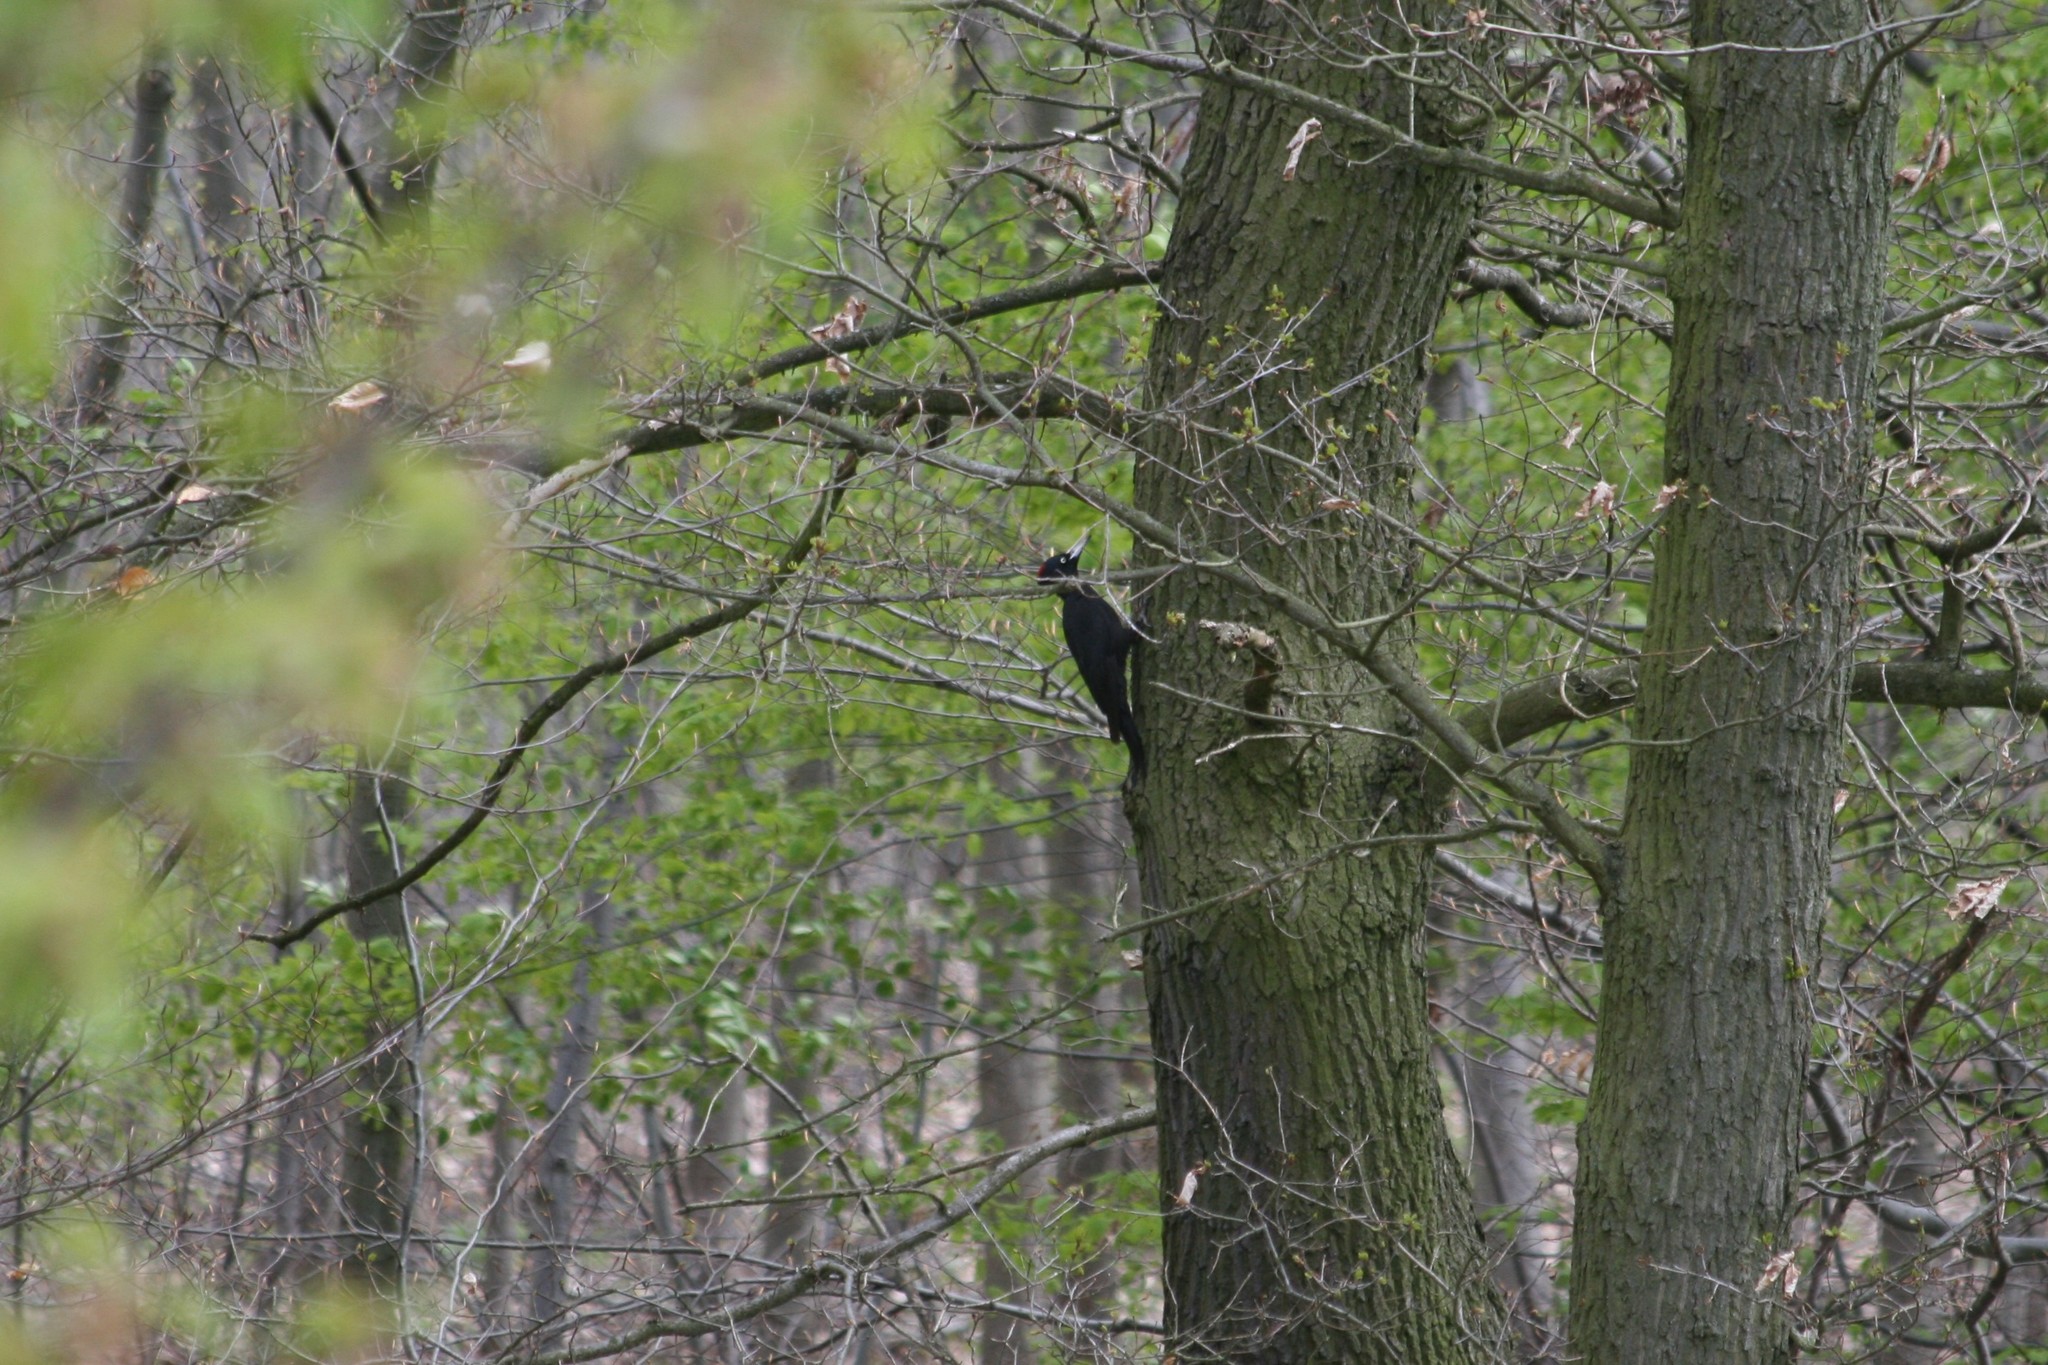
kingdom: Animalia
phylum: Chordata
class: Aves
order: Piciformes
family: Picidae
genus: Dryocopus
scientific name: Dryocopus martius
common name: Black woodpecker
